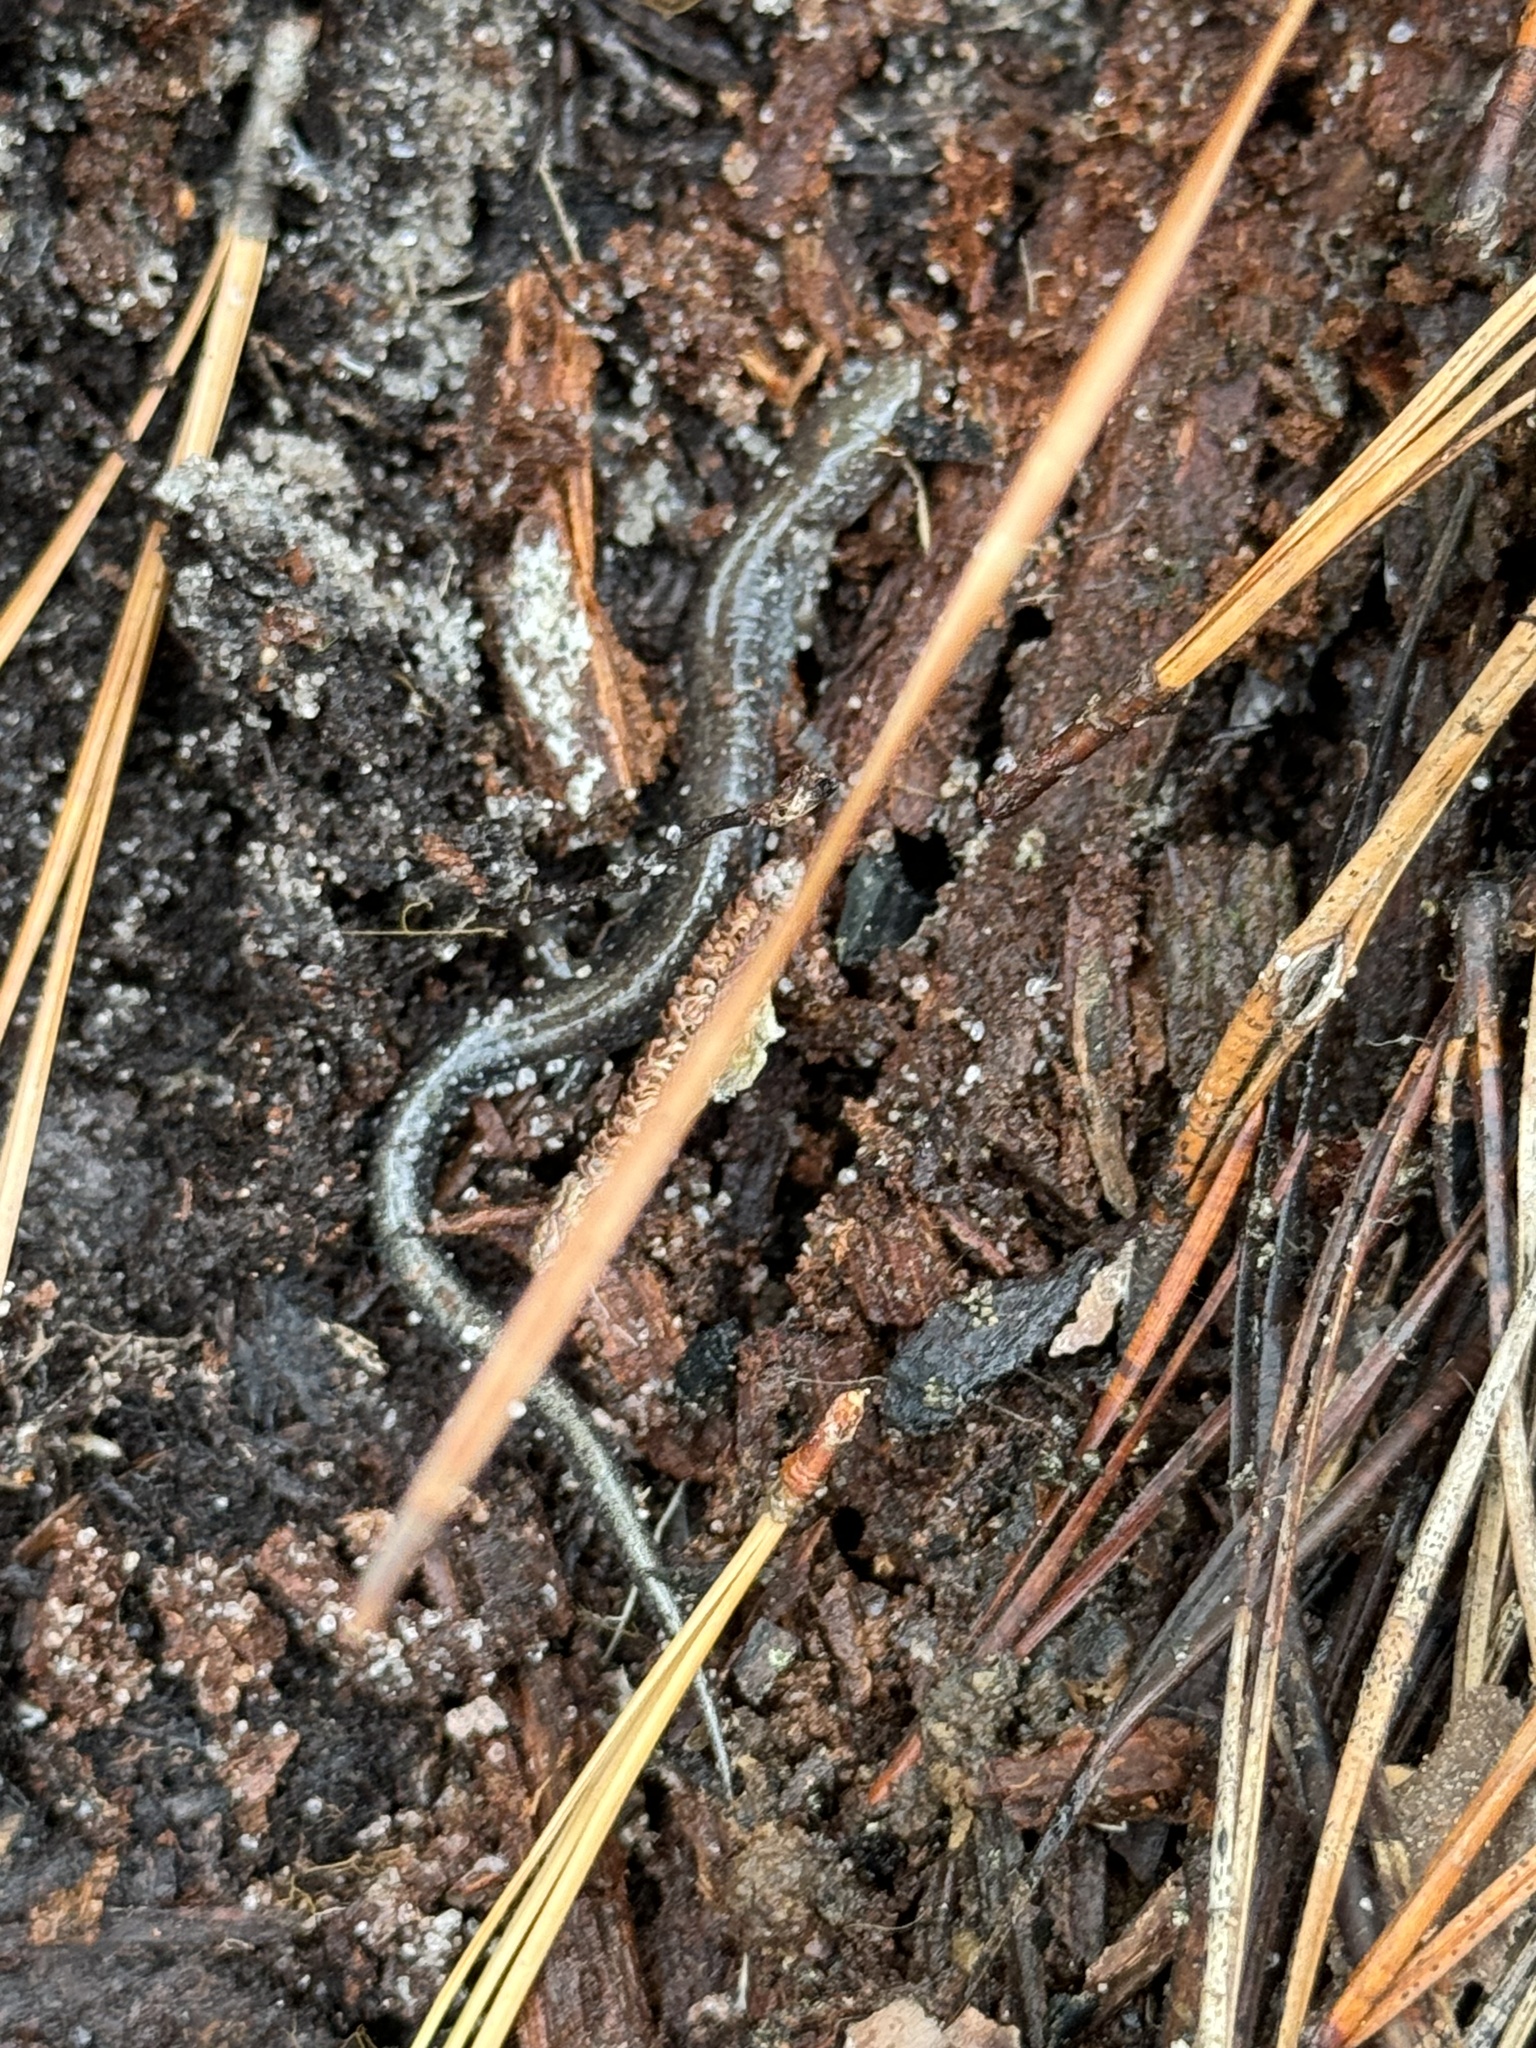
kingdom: Animalia
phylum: Chordata
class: Amphibia
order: Caudata
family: Plethodontidae
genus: Plethodon
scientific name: Plethodon cinereus
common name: Redback salamander
